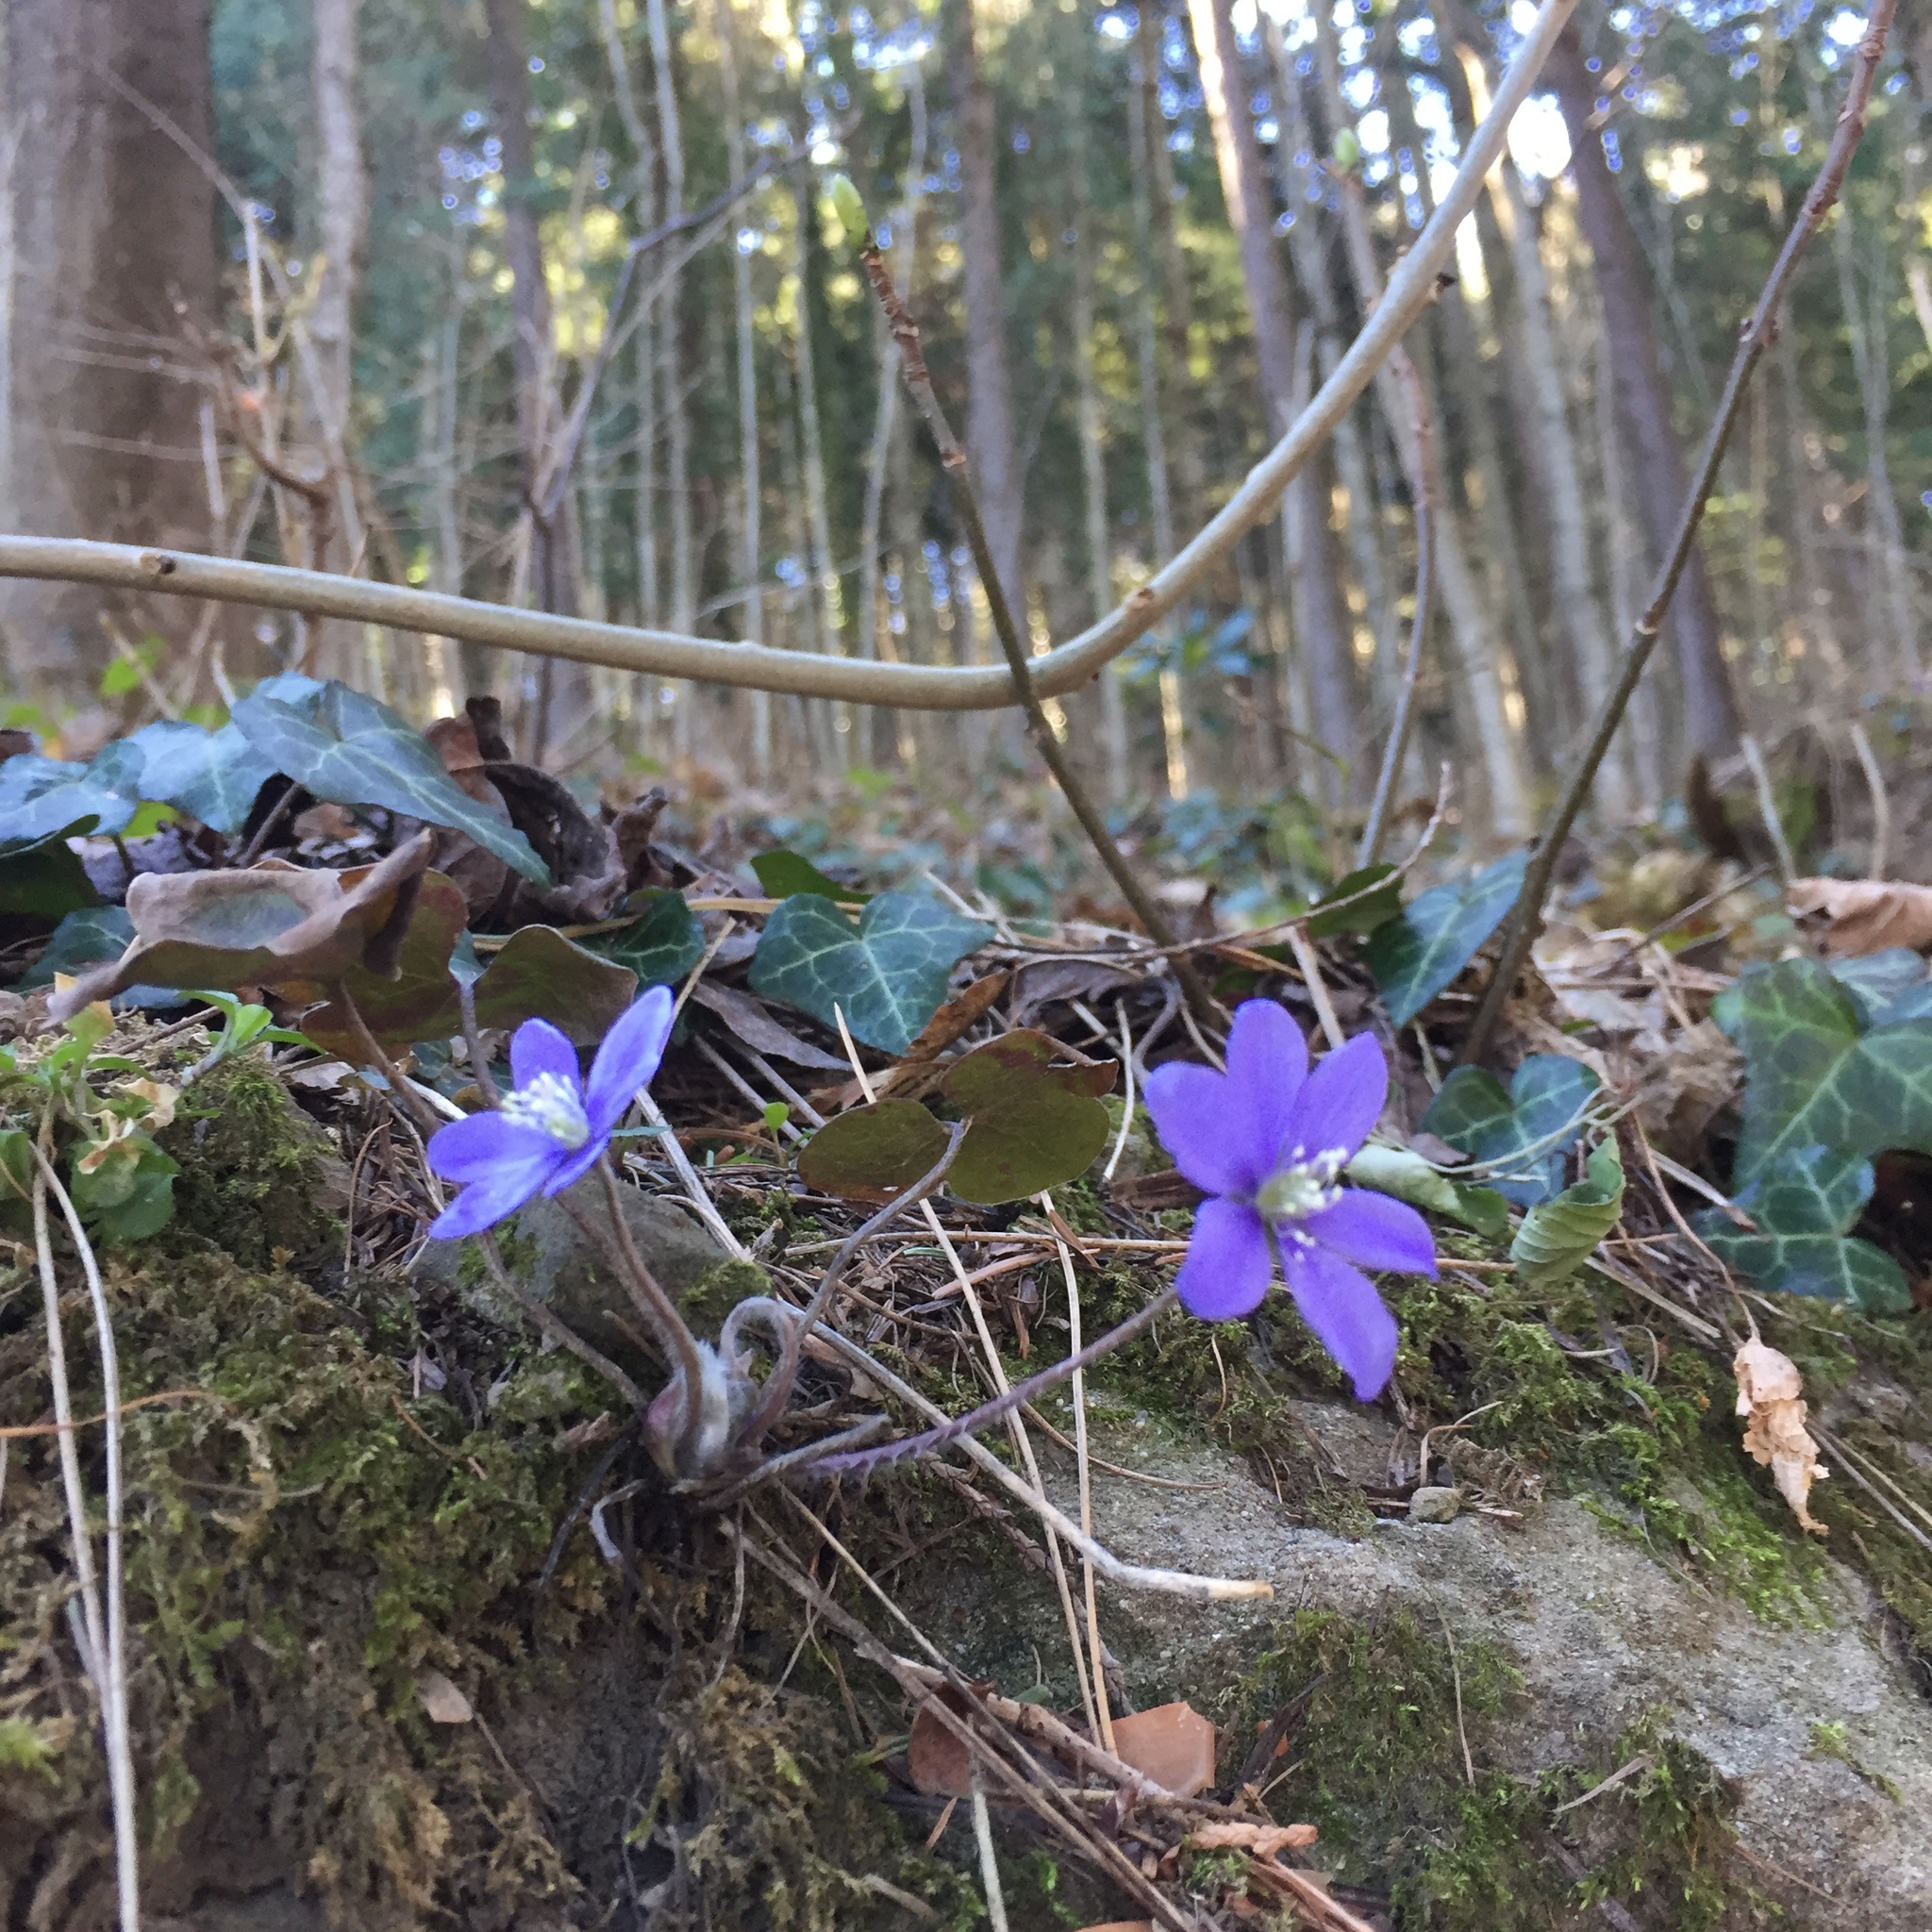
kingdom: Plantae
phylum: Tracheophyta
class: Magnoliopsida
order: Ranunculales
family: Ranunculaceae
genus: Hepatica
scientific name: Hepatica nobilis
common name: Liverleaf
